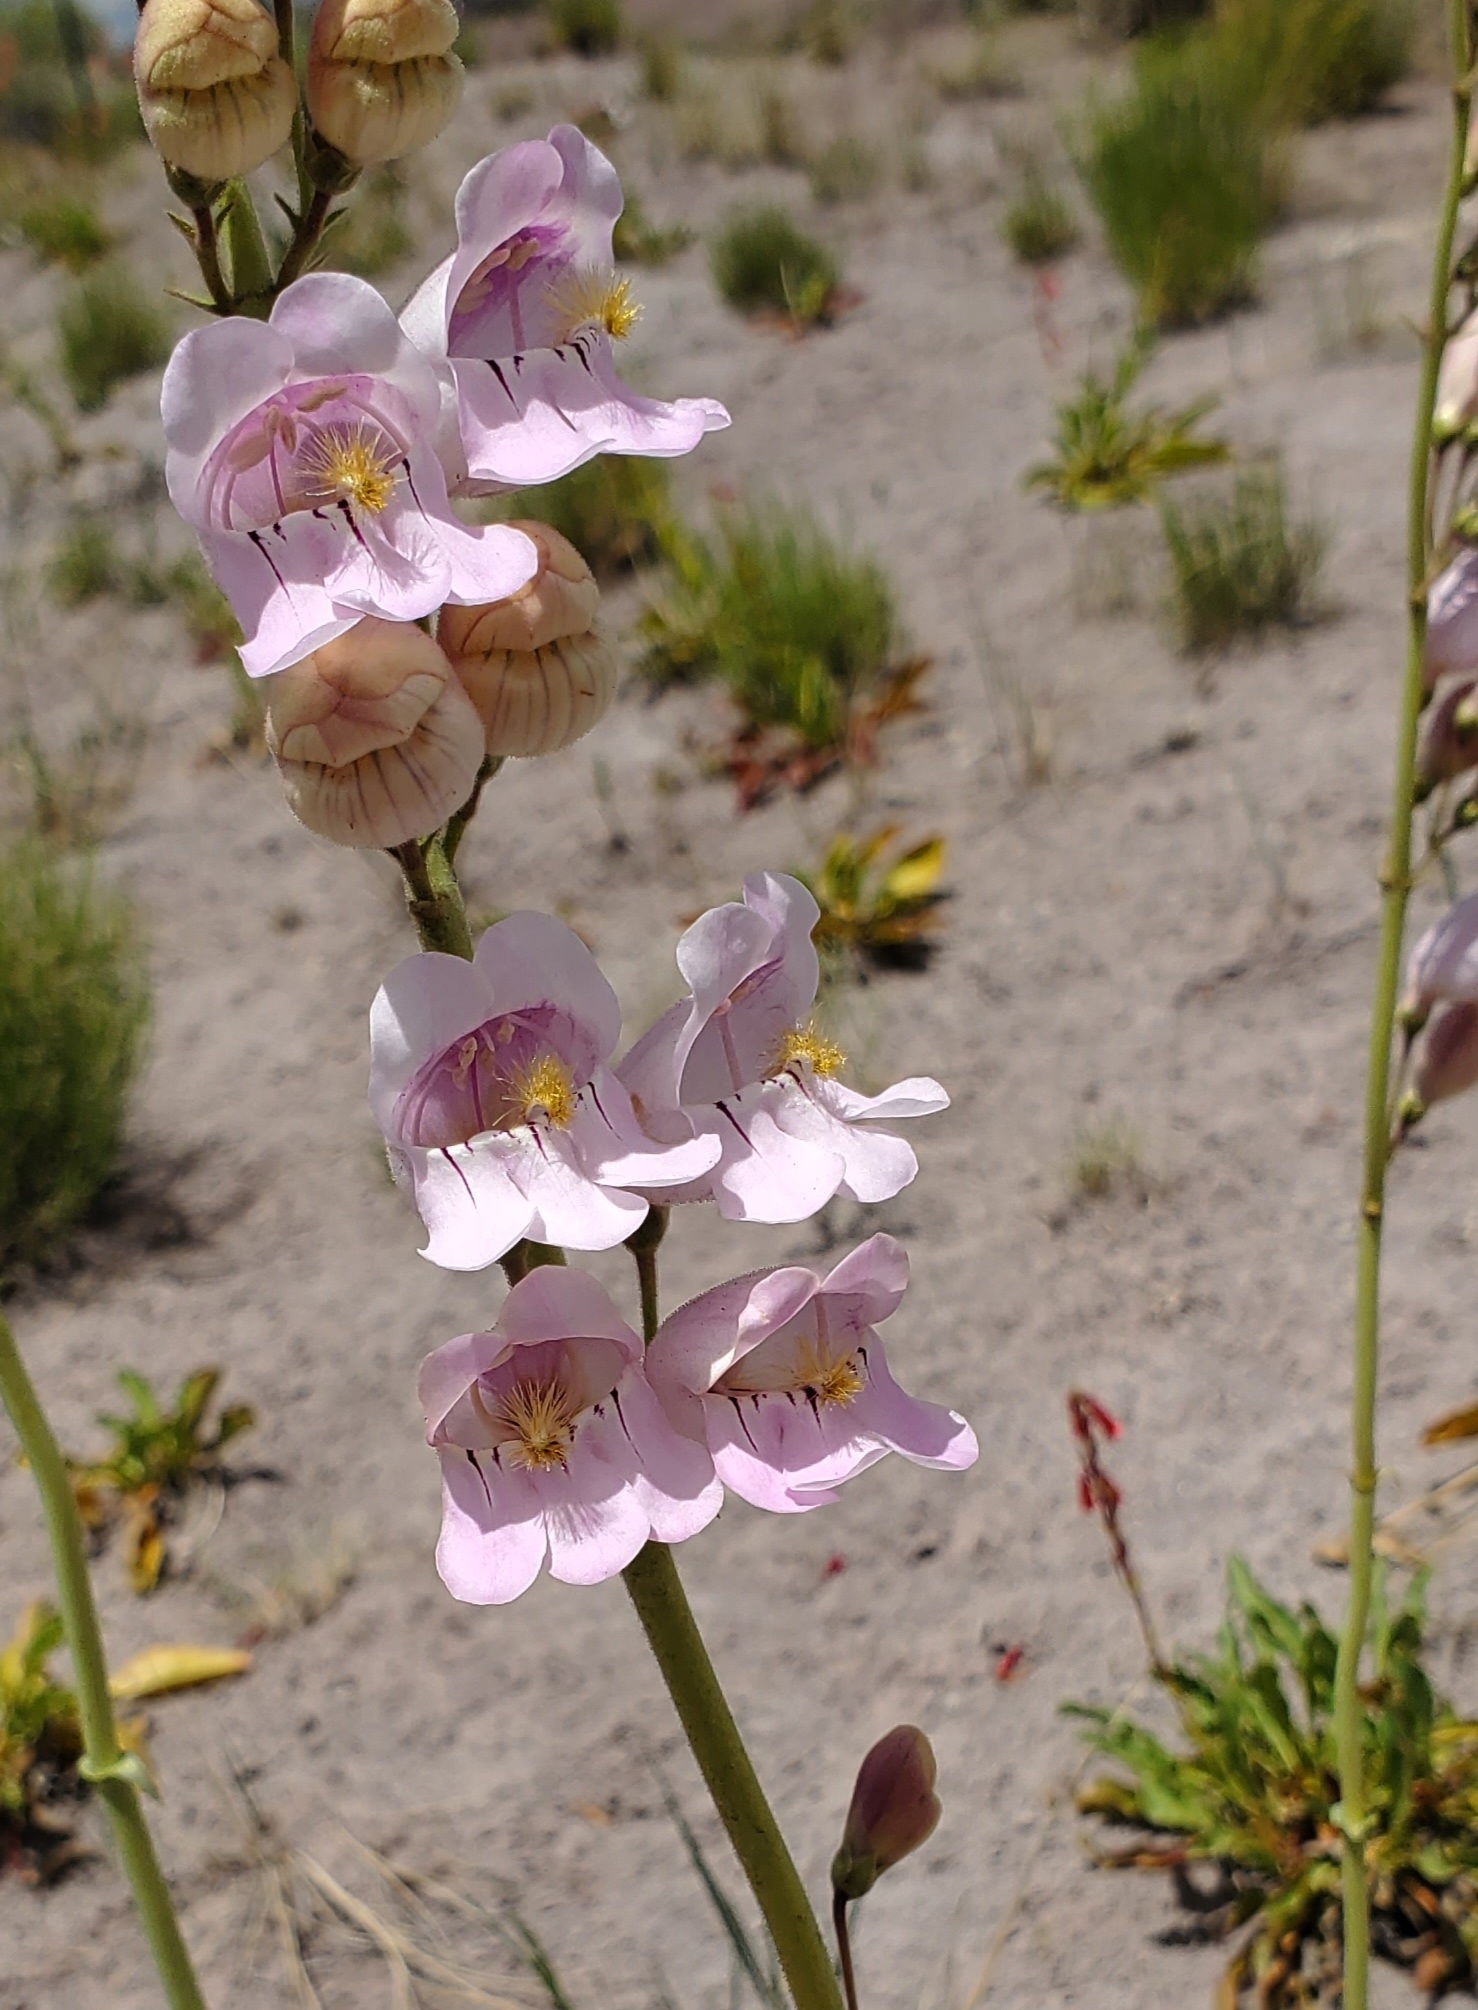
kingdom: Plantae
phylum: Tracheophyta
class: Magnoliopsida
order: Lamiales
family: Plantaginaceae
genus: Penstemon
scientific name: Penstemon palmeri
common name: Palmer penstemon
